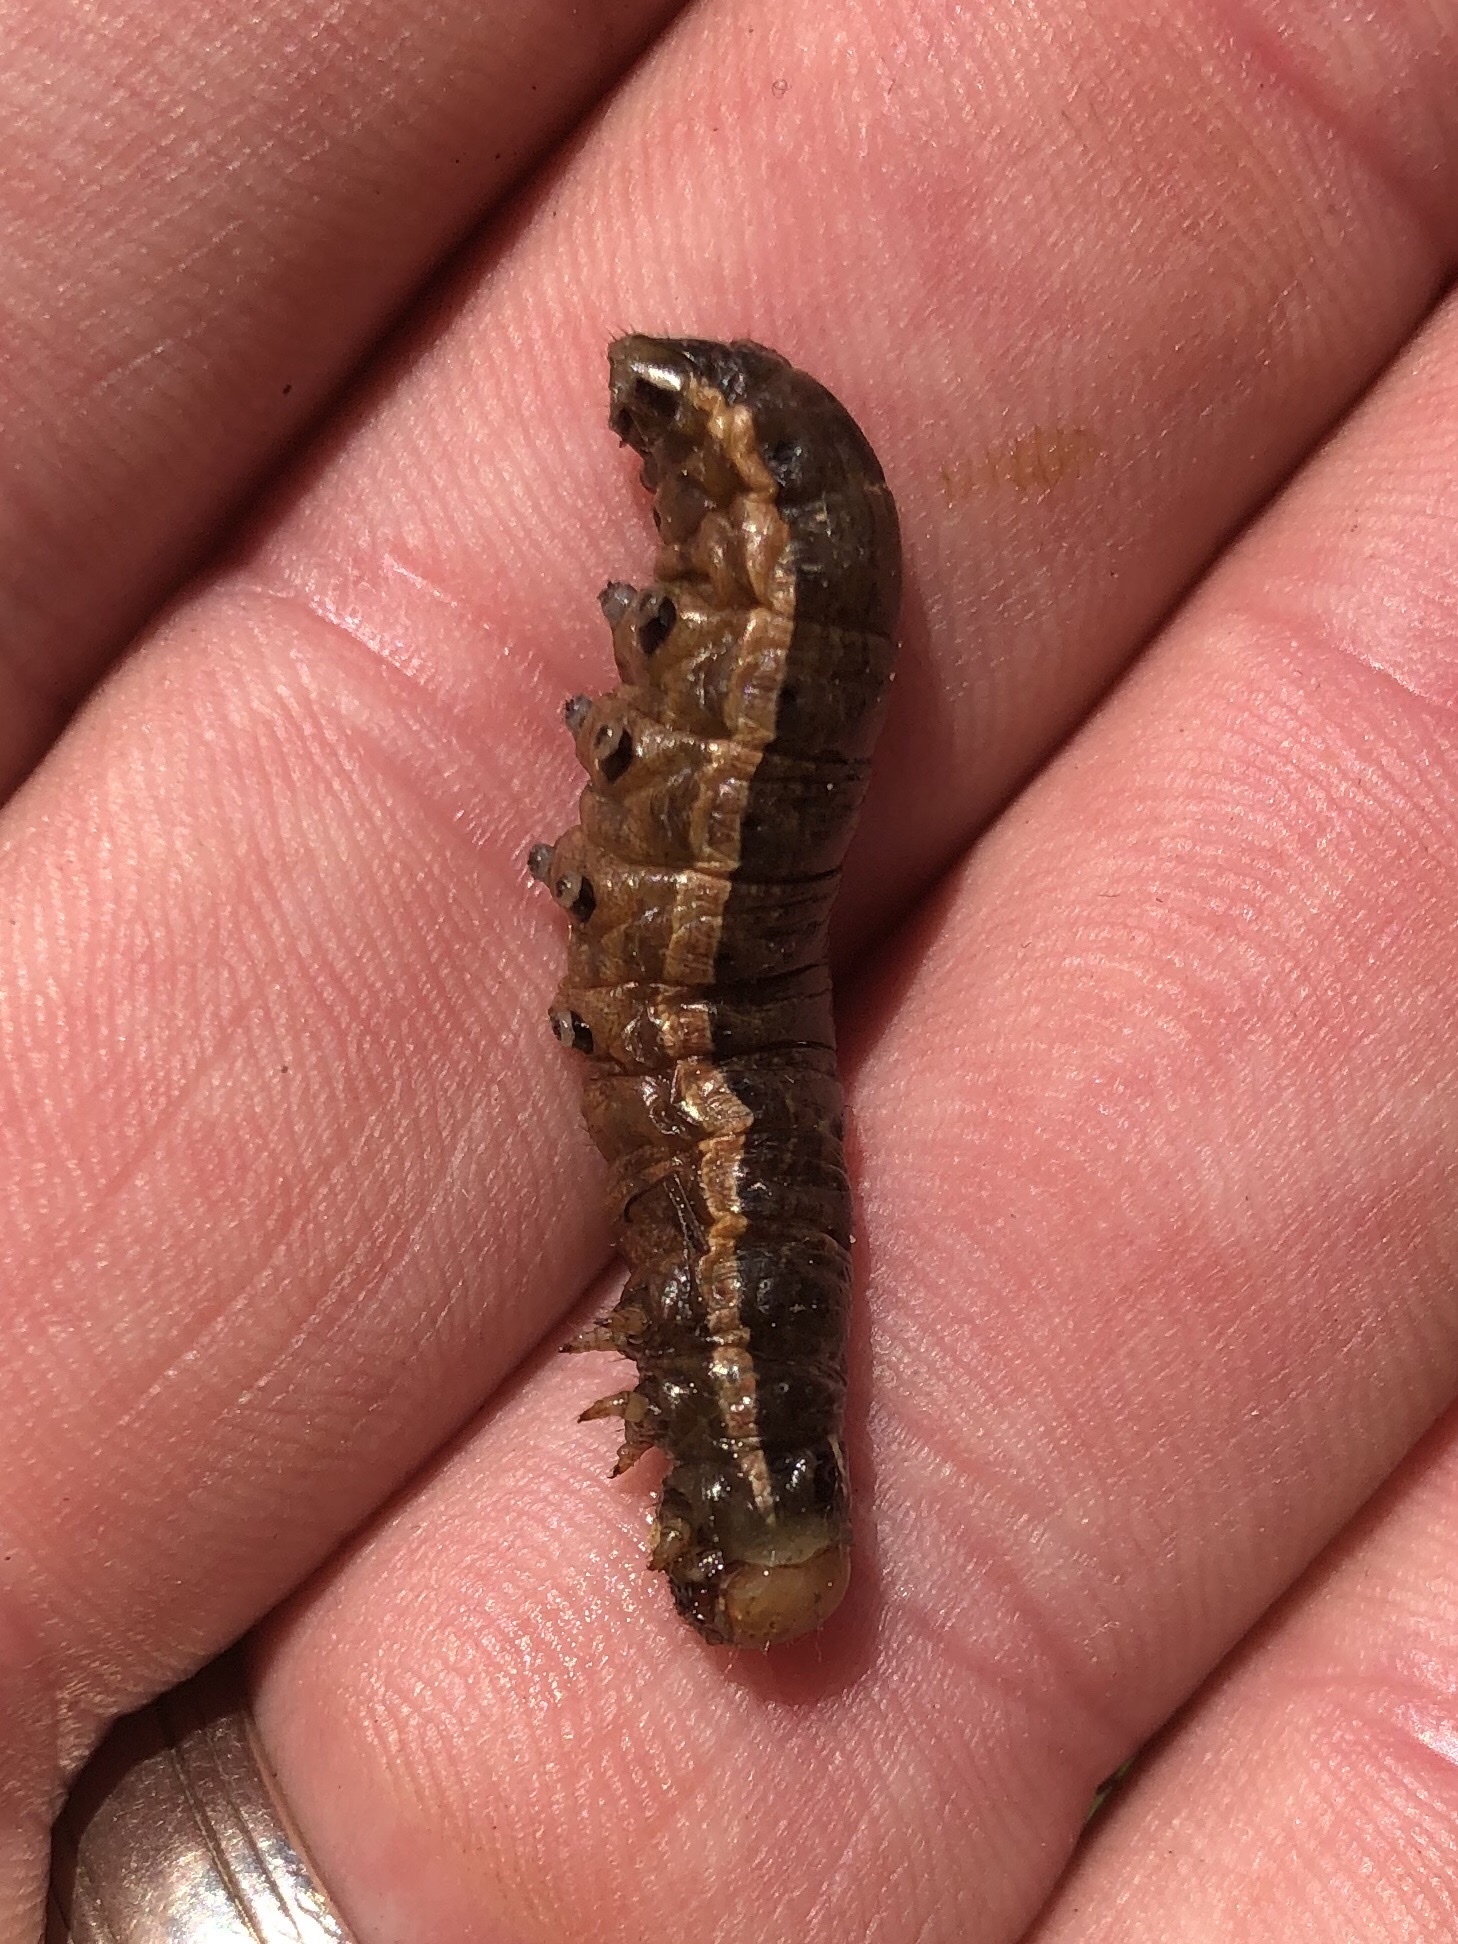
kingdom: Animalia
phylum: Arthropoda
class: Insecta
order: Lepidoptera
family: Noctuidae
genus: Nephelodes
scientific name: Nephelodes minians
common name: Bronzed cutworm
